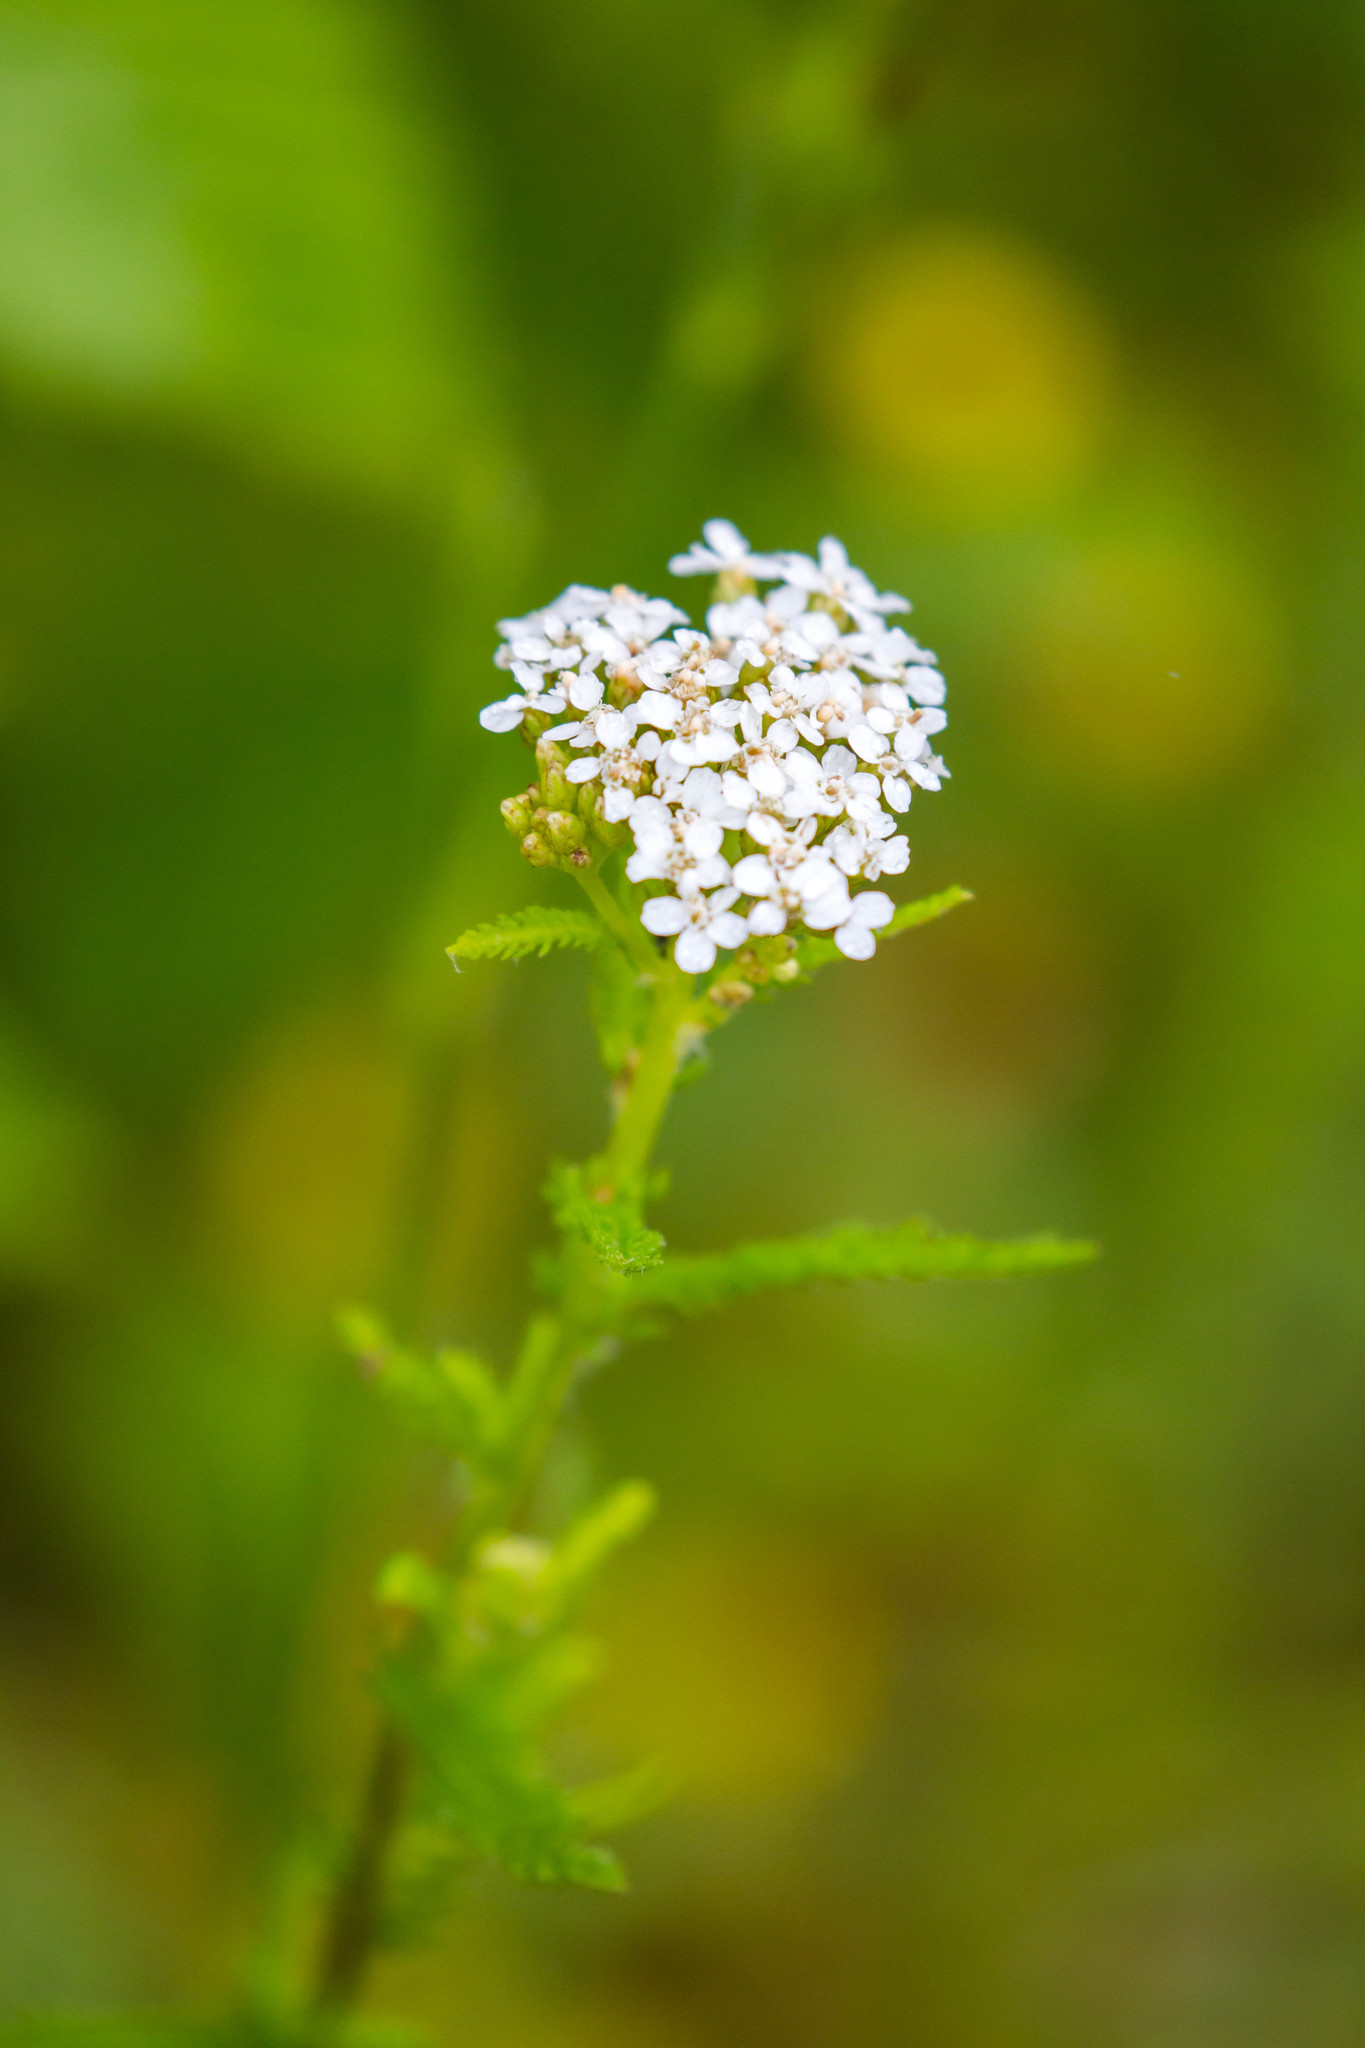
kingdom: Plantae
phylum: Tracheophyta
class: Magnoliopsida
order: Asterales
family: Asteraceae
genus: Achillea
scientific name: Achillea millefolium
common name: Yarrow
